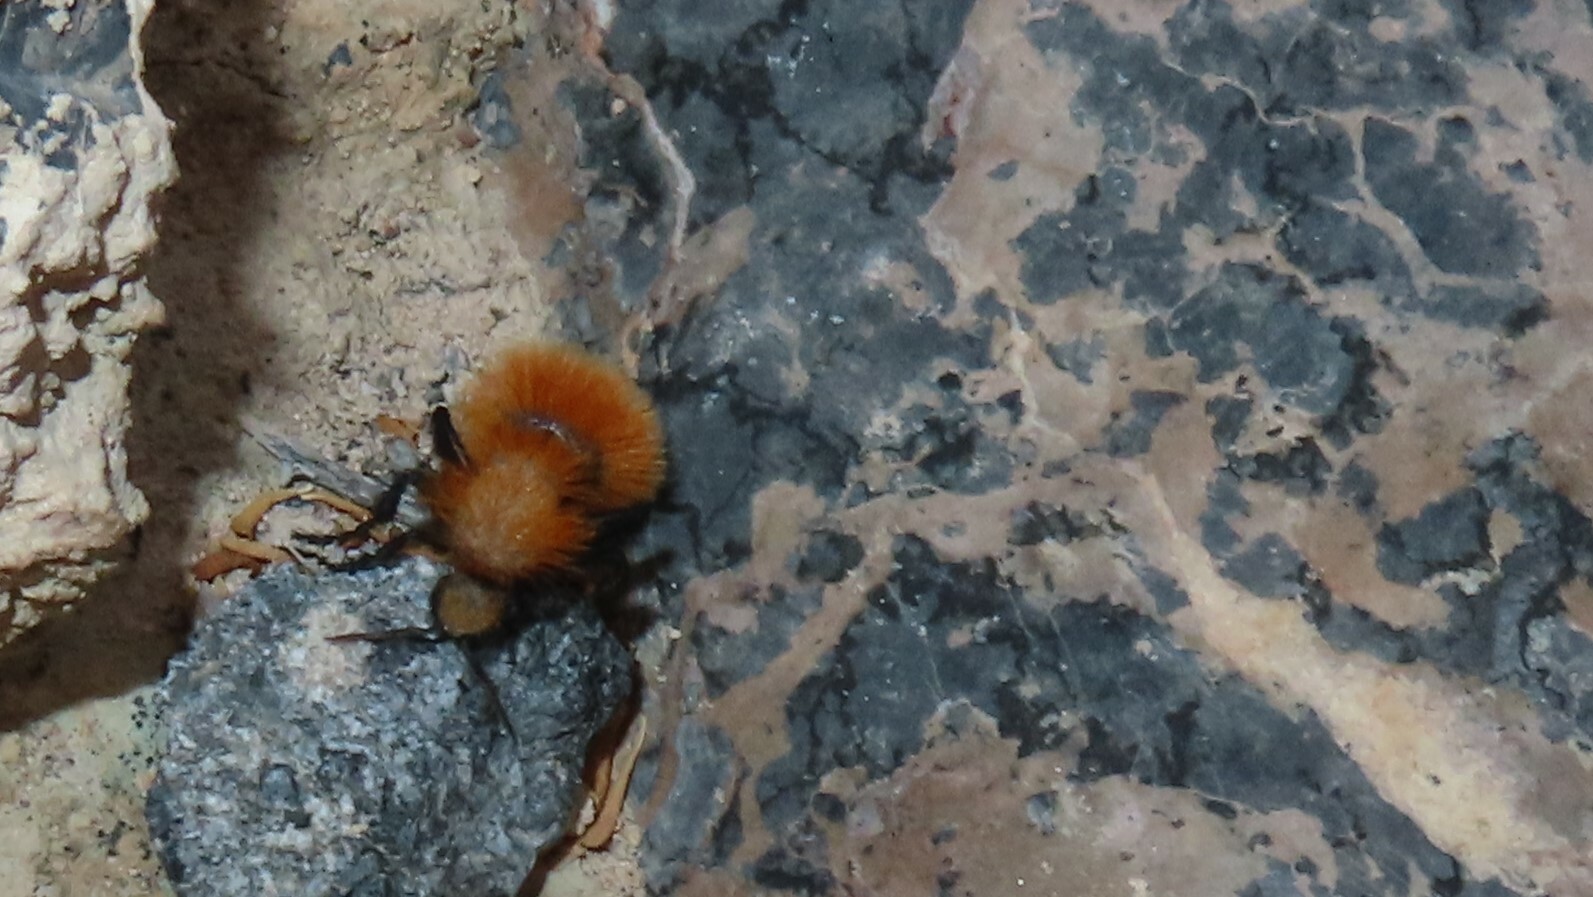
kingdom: Animalia
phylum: Arthropoda
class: Insecta
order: Hymenoptera
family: Mutillidae
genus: Dasymutilla
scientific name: Dasymutilla satanas
